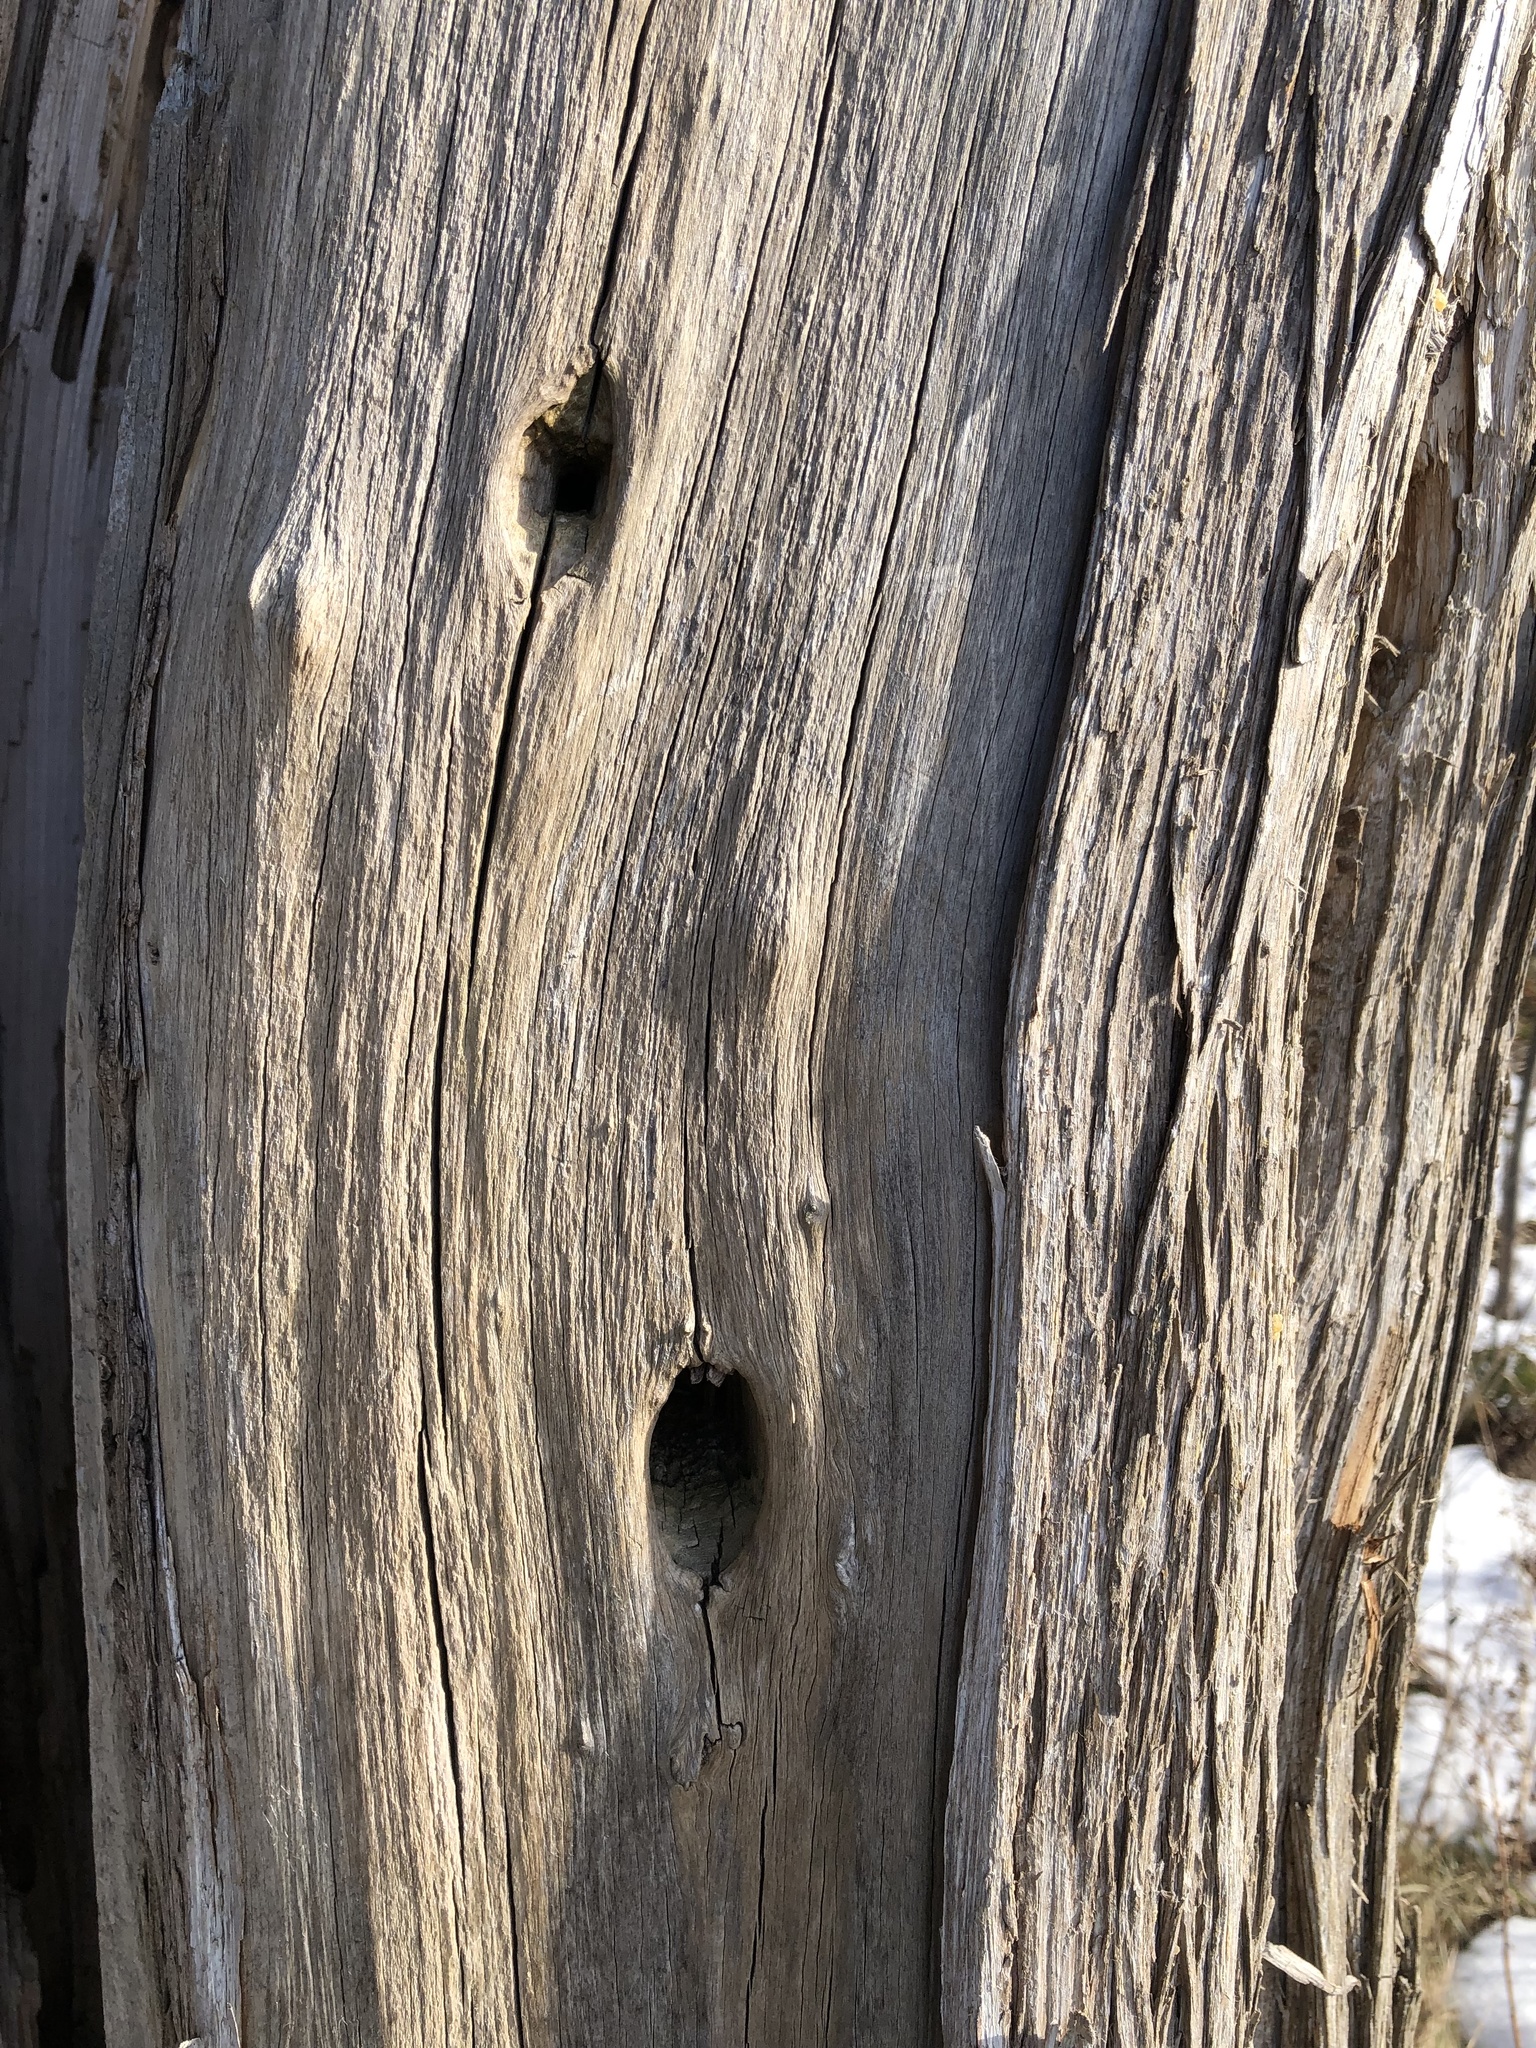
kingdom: Animalia
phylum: Chordata
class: Aves
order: Piciformes
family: Picidae
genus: Dryocopus
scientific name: Dryocopus pileatus
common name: Pileated woodpecker
